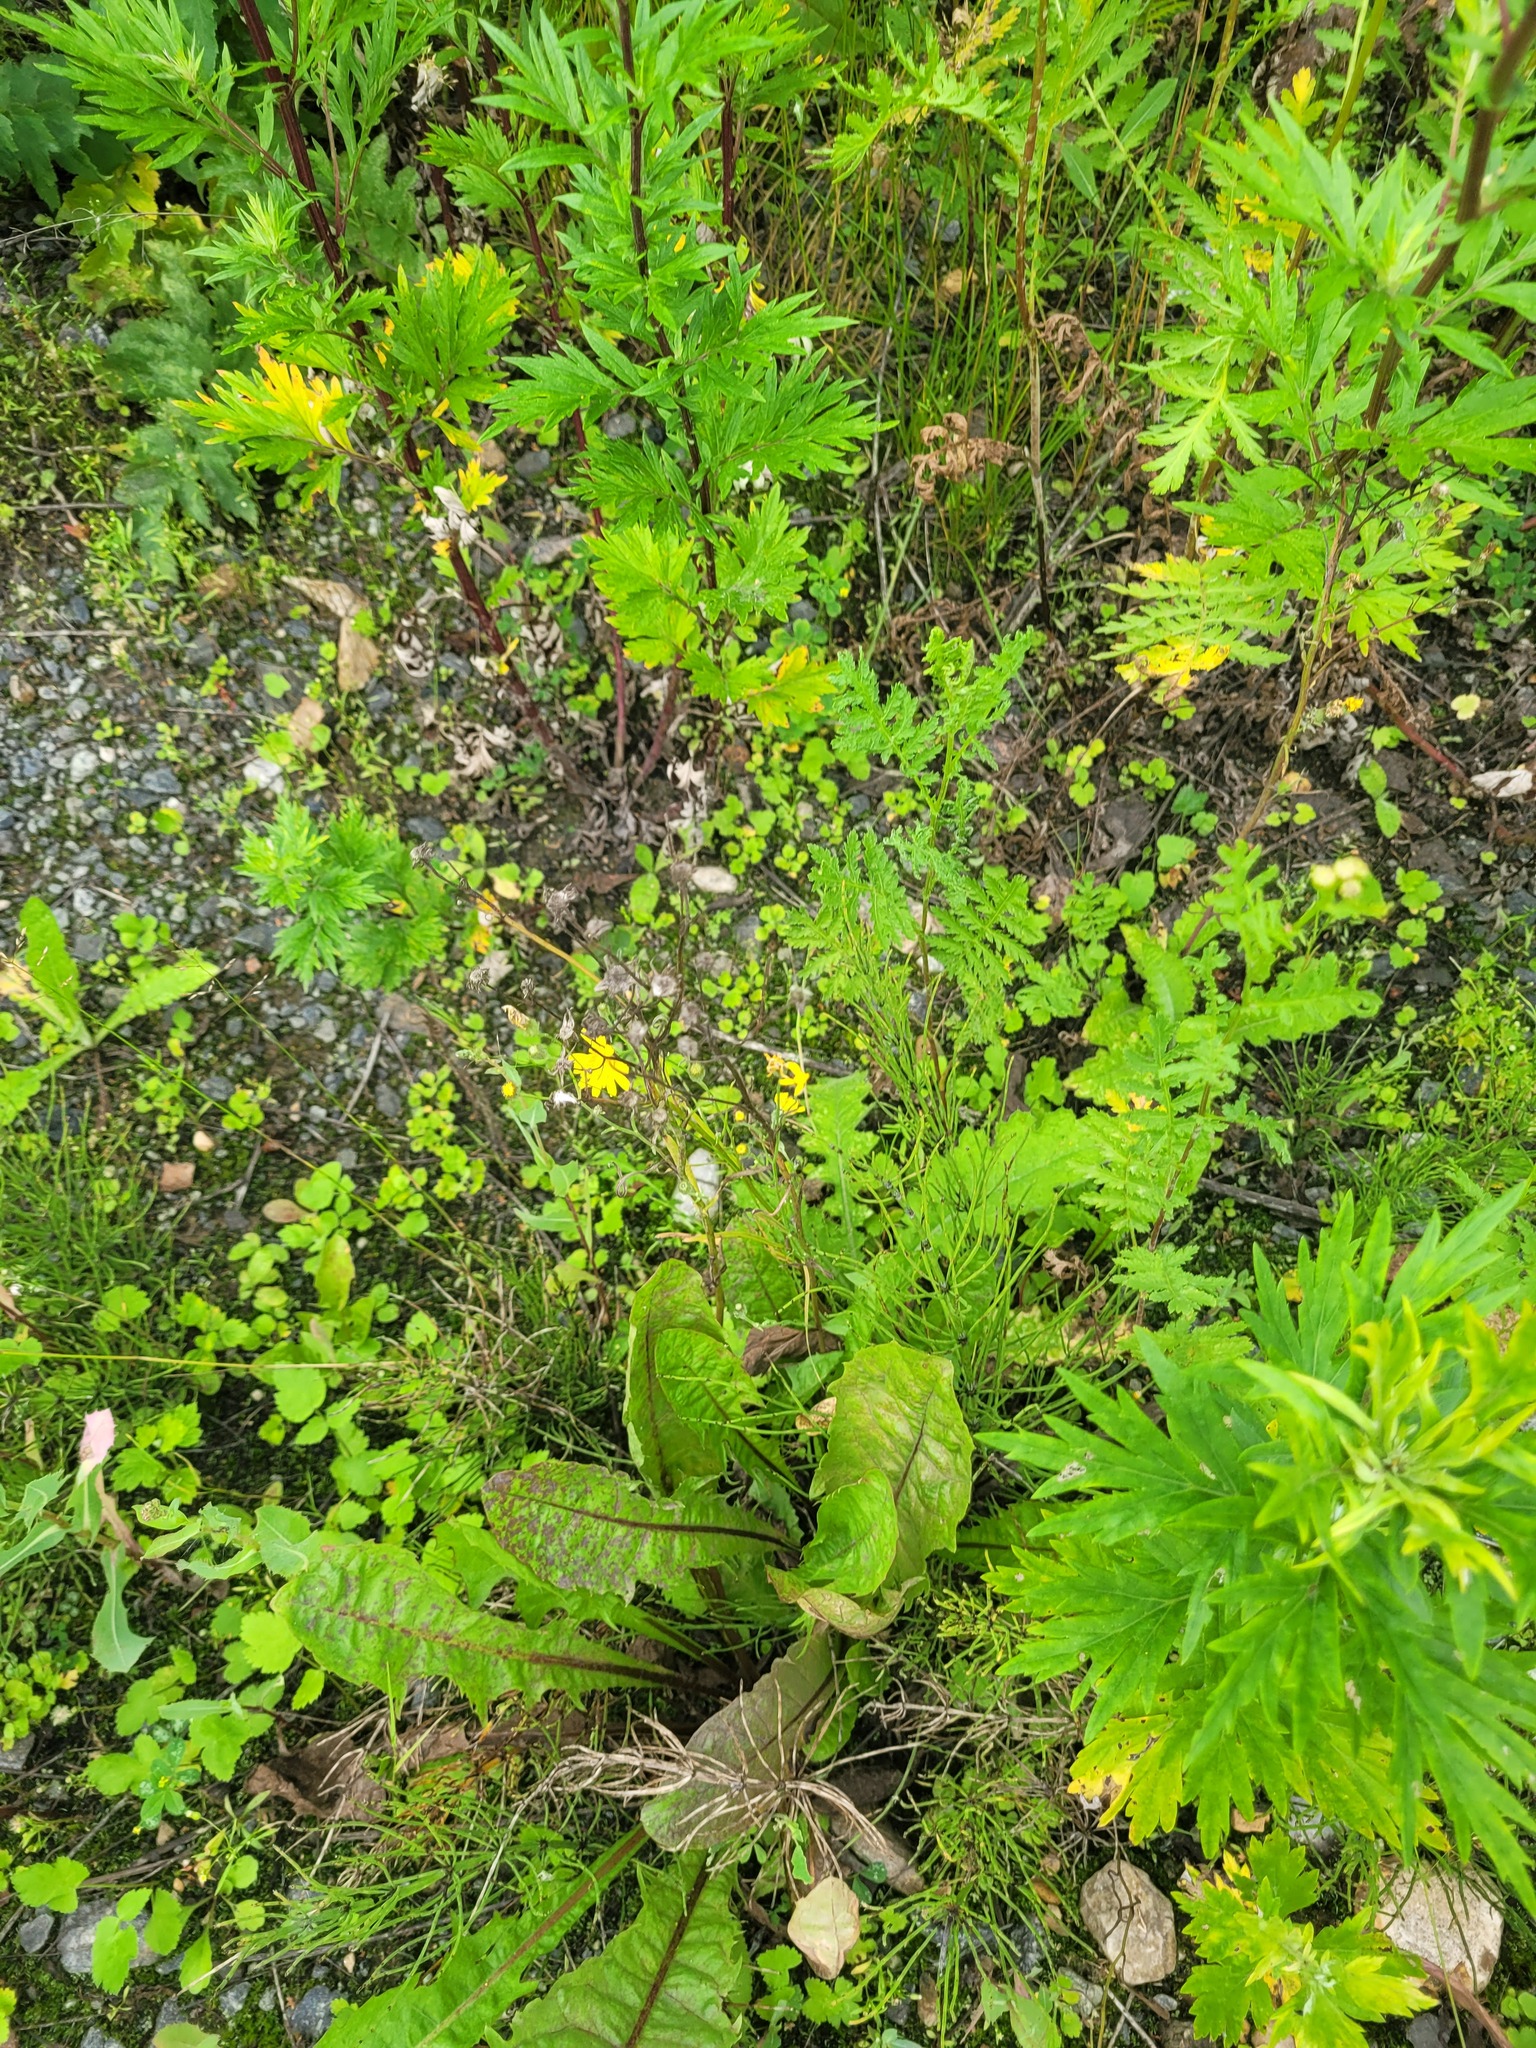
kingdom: Plantae
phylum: Tracheophyta
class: Magnoliopsida
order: Asterales
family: Asteraceae
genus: Crepis
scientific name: Crepis tectorum
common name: Narrow-leaved hawk's-beard
